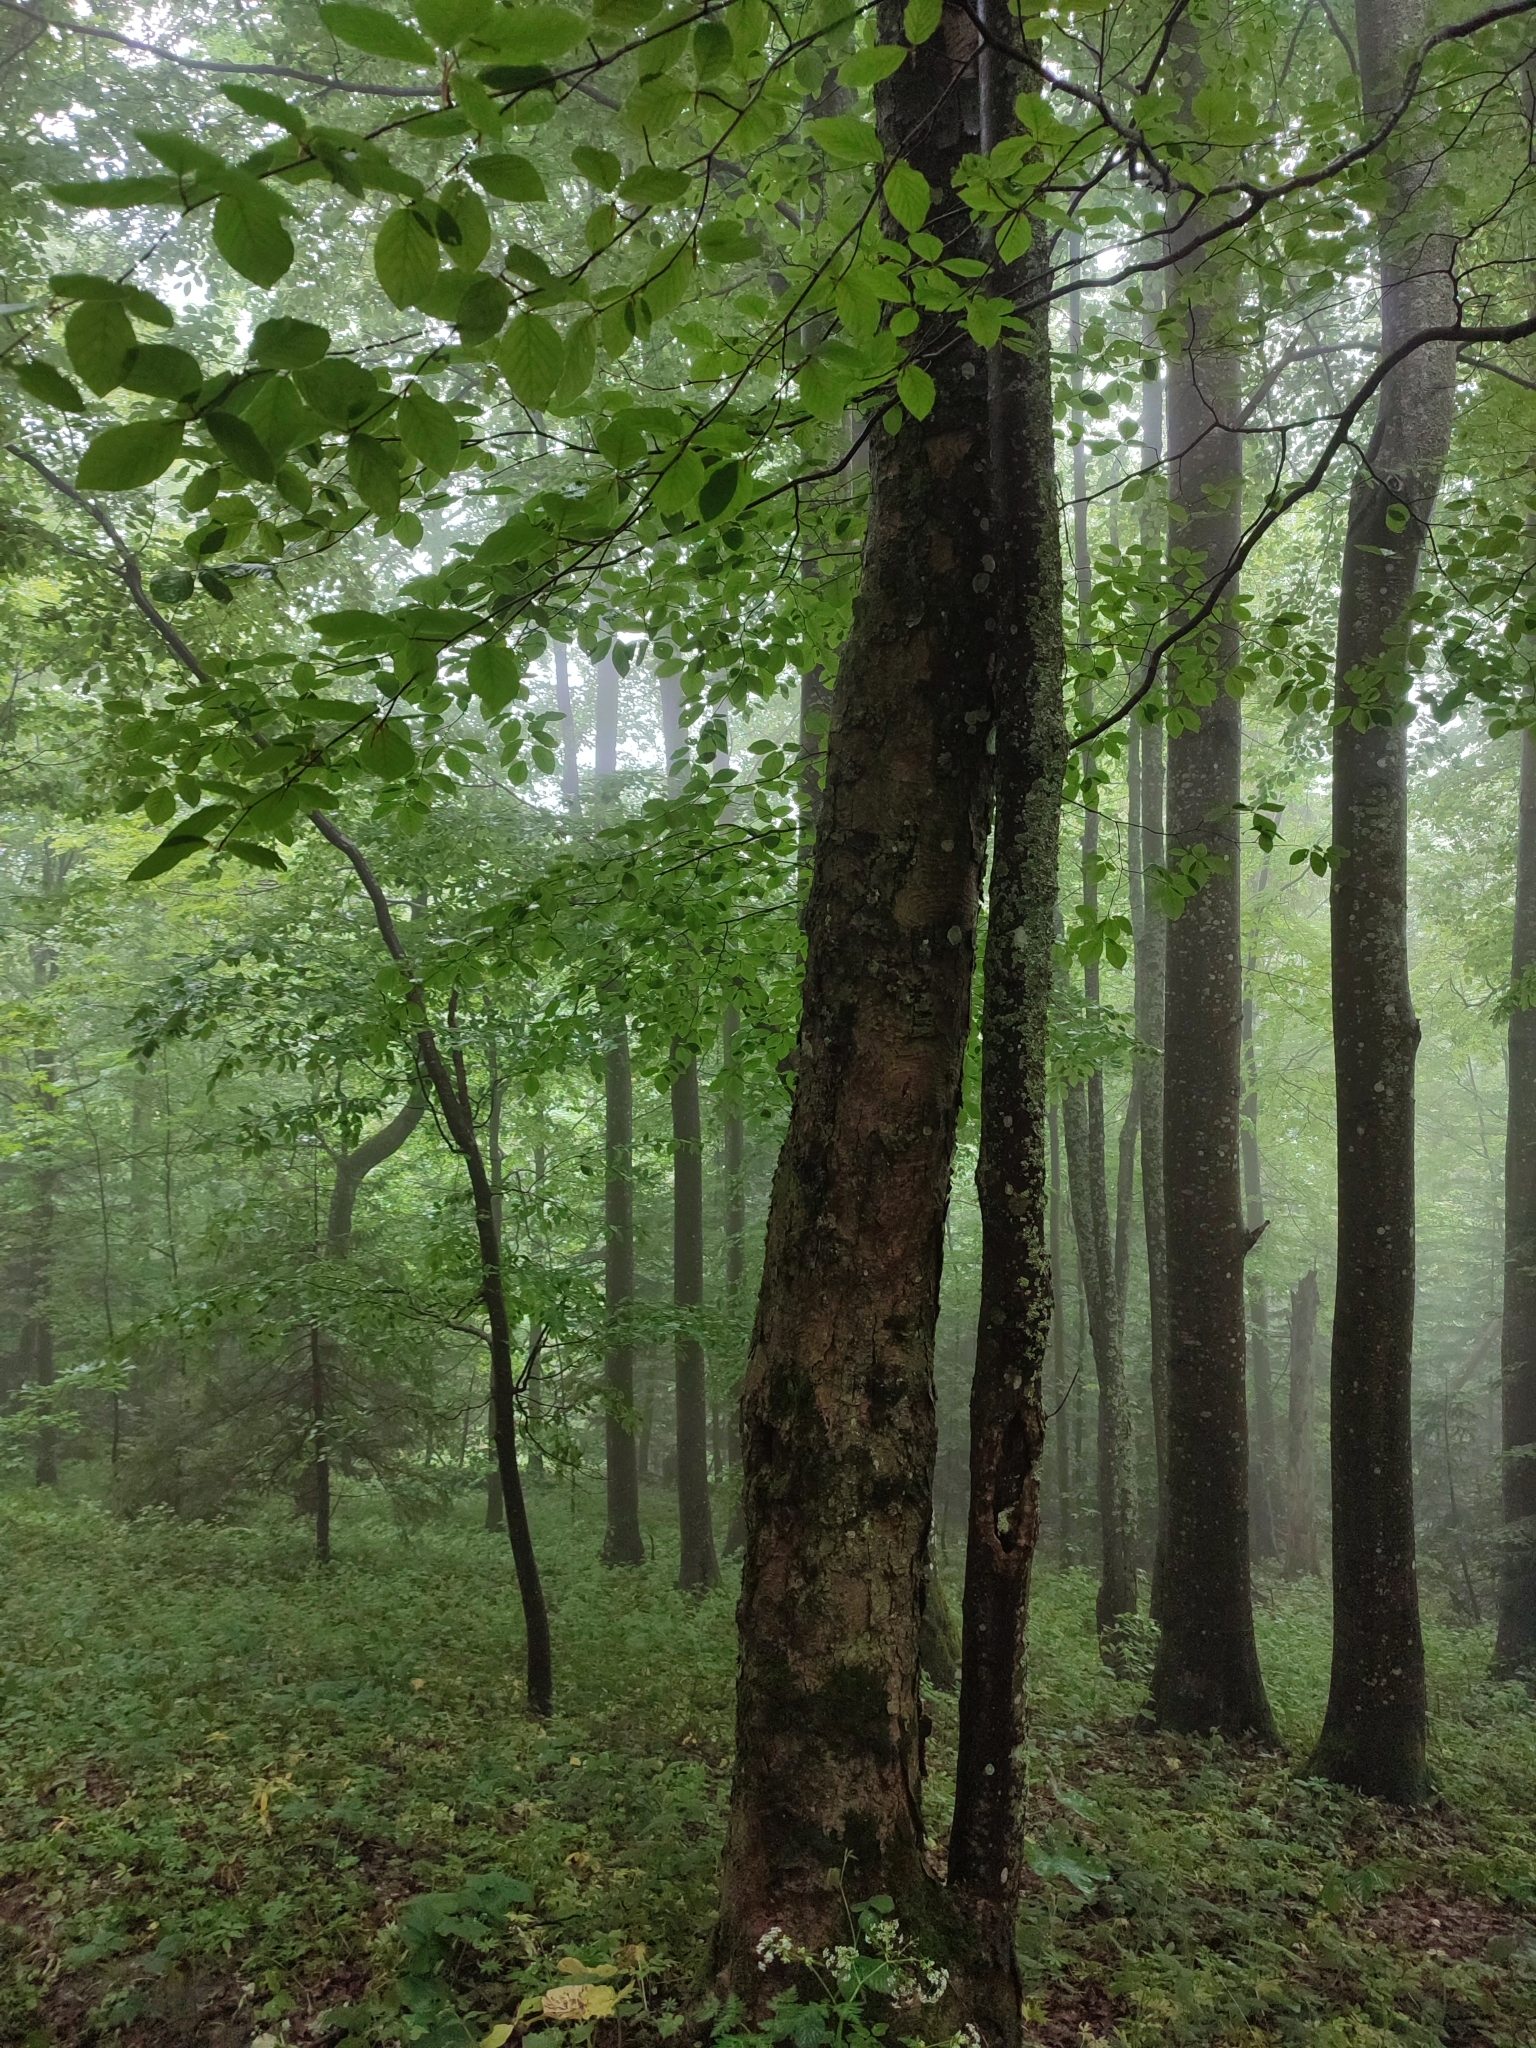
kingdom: Plantae
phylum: Tracheophyta
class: Magnoliopsida
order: Fagales
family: Fagaceae
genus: Fagus
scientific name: Fagus sylvatica
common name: Beech
